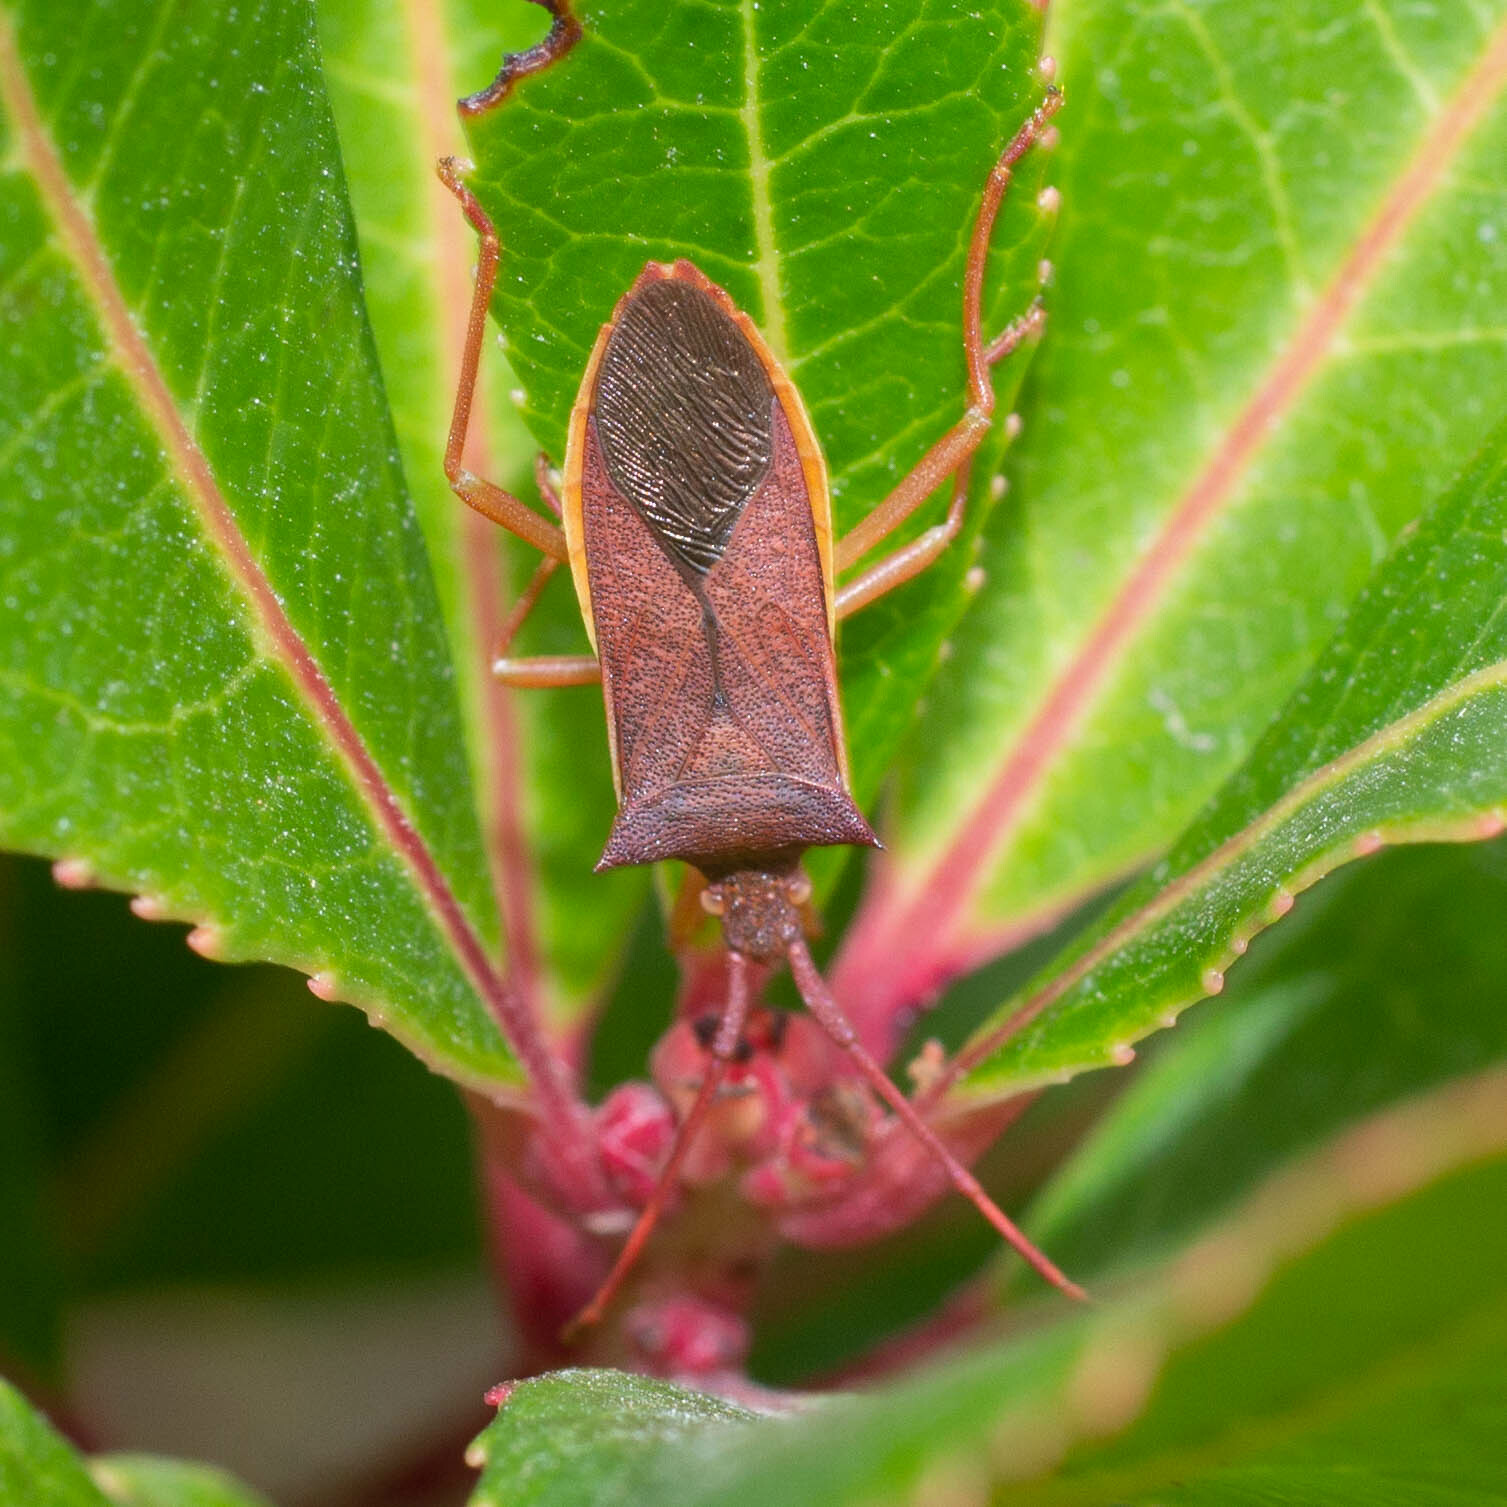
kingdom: Animalia
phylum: Arthropoda
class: Insecta
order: Hemiptera
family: Coreidae
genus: Gonocerus
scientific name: Gonocerus insidiator
